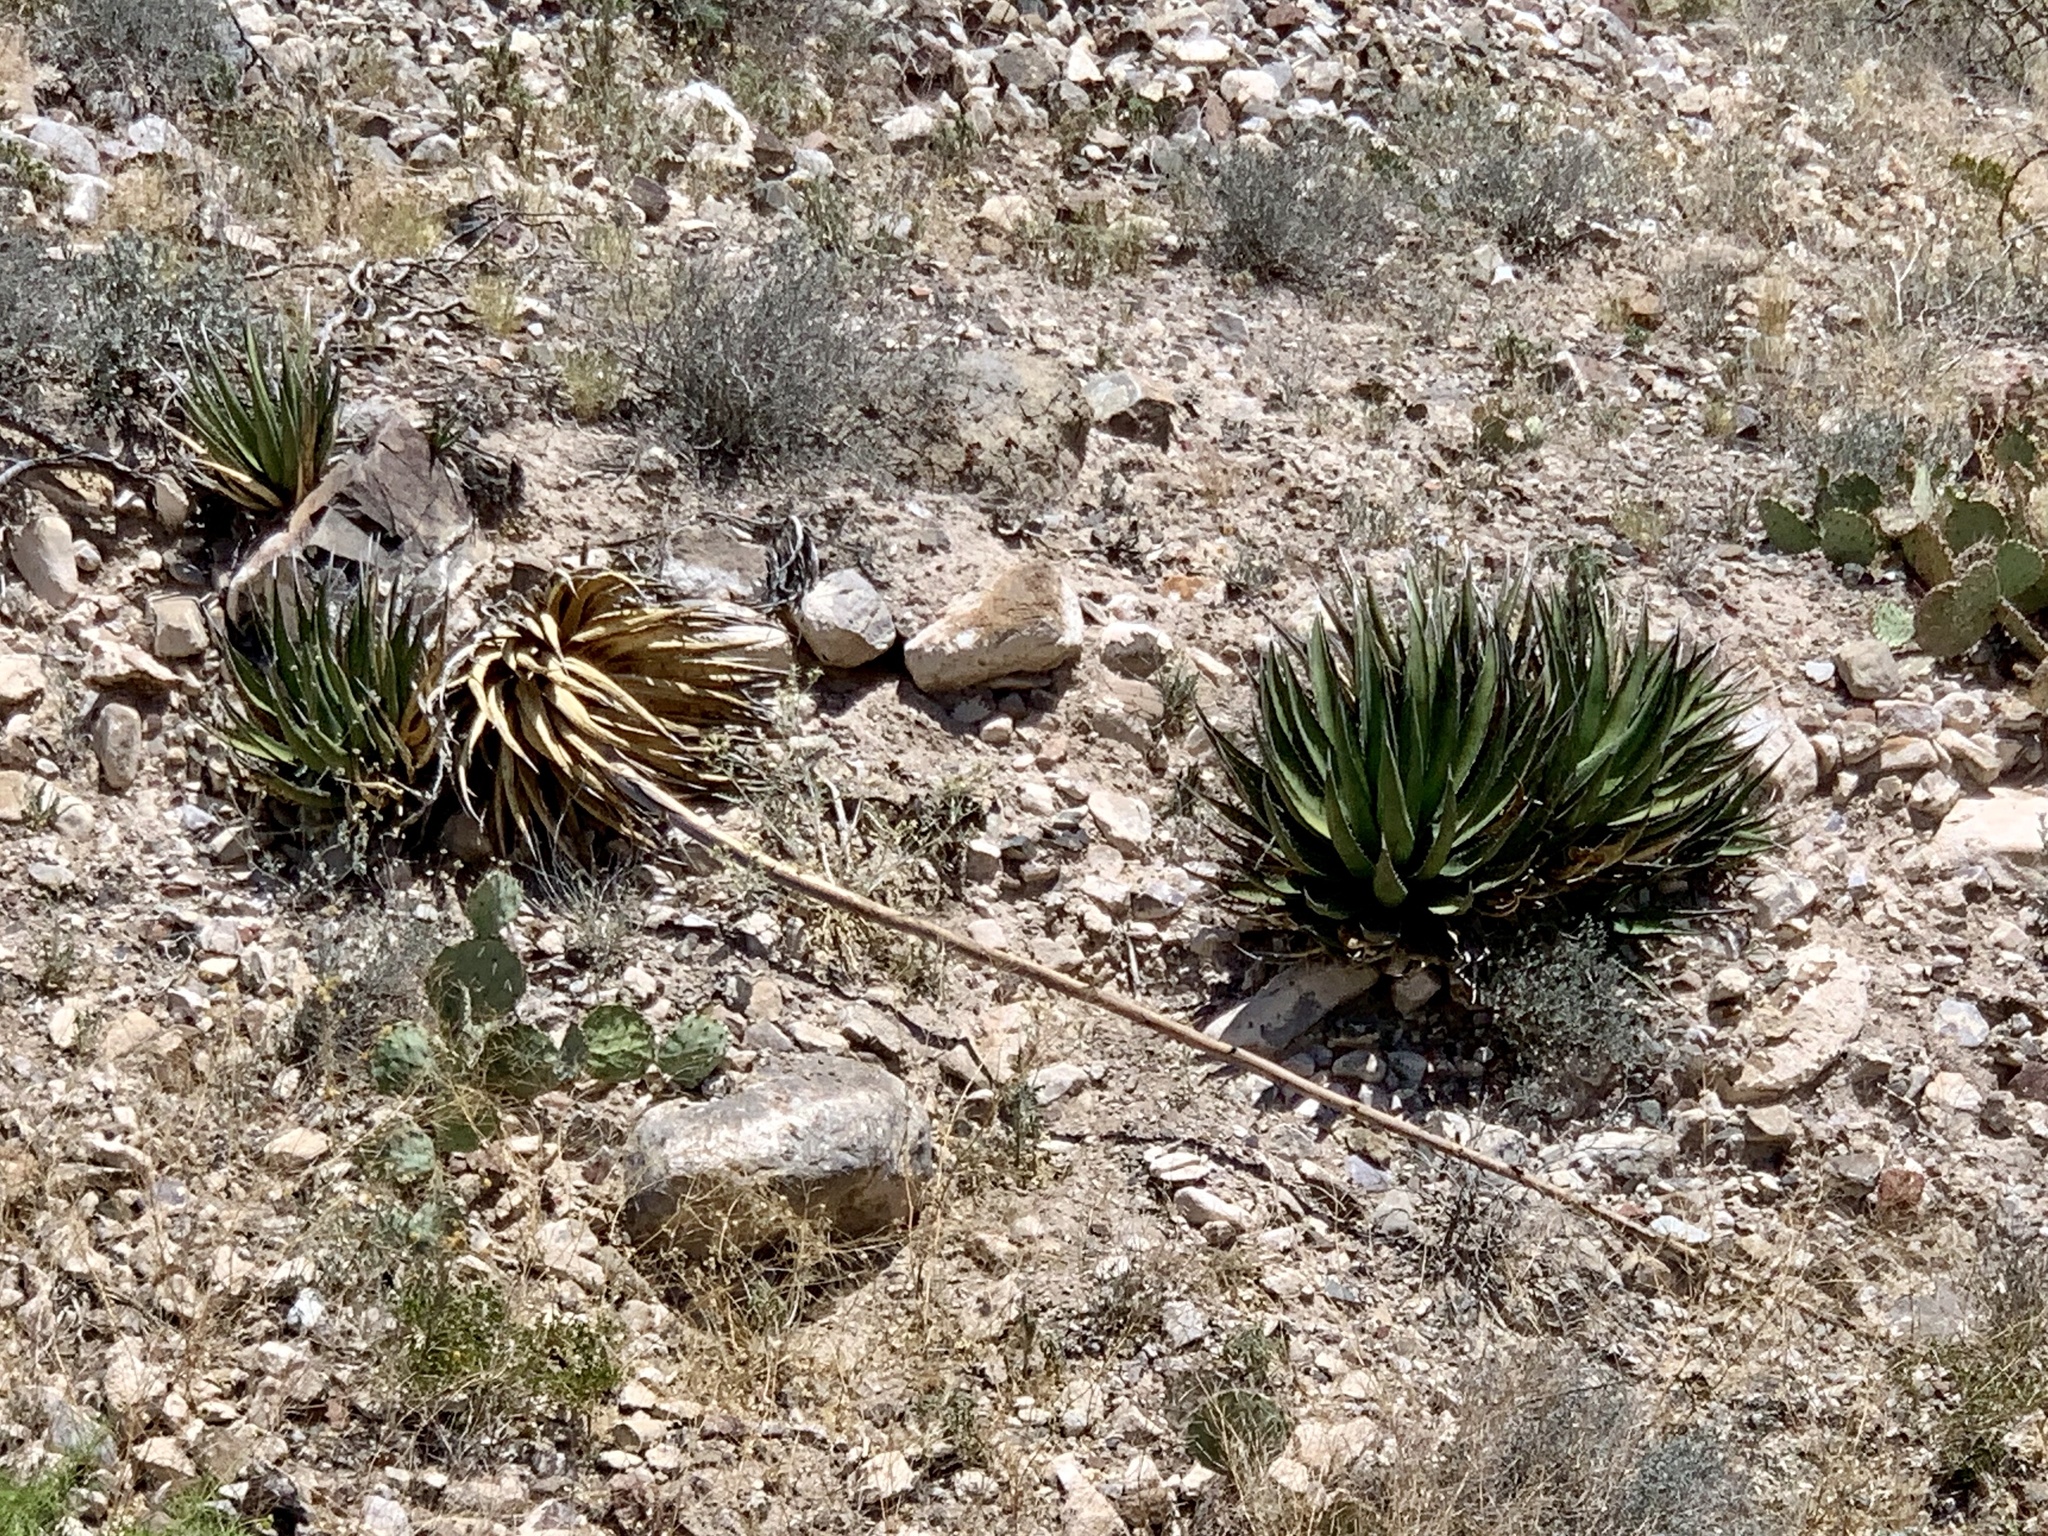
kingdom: Plantae
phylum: Tracheophyta
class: Liliopsida
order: Asparagales
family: Asparagaceae
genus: Agave
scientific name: Agave lechuguilla
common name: Lecheguilla agave
